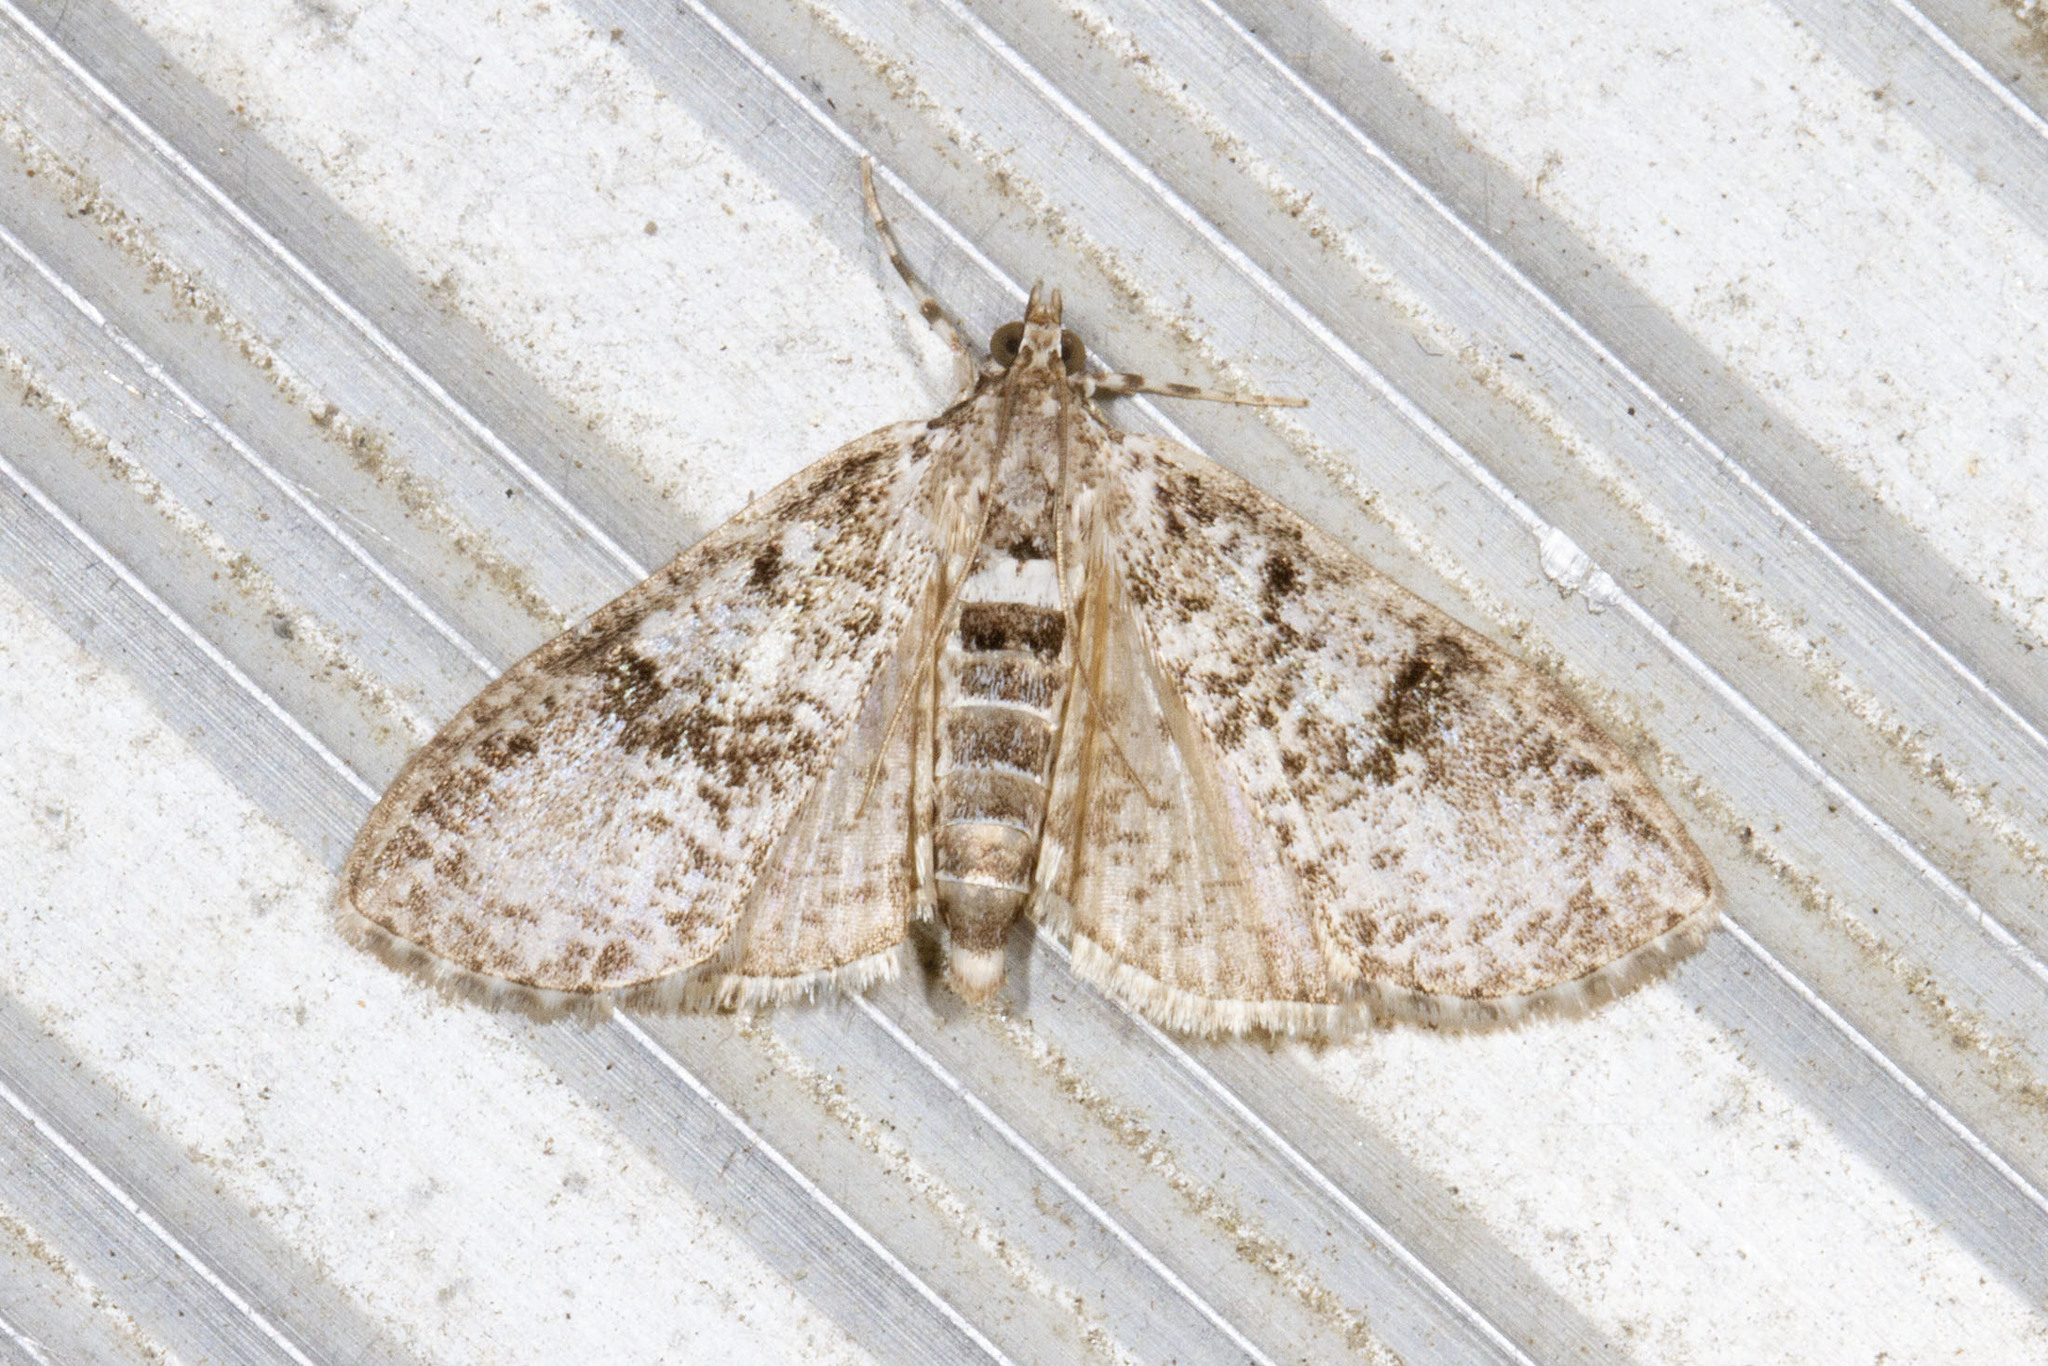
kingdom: Animalia
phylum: Arthropoda
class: Insecta
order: Lepidoptera
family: Crambidae
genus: Palpita
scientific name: Palpita magniferalis
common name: Splendid palpita moth
